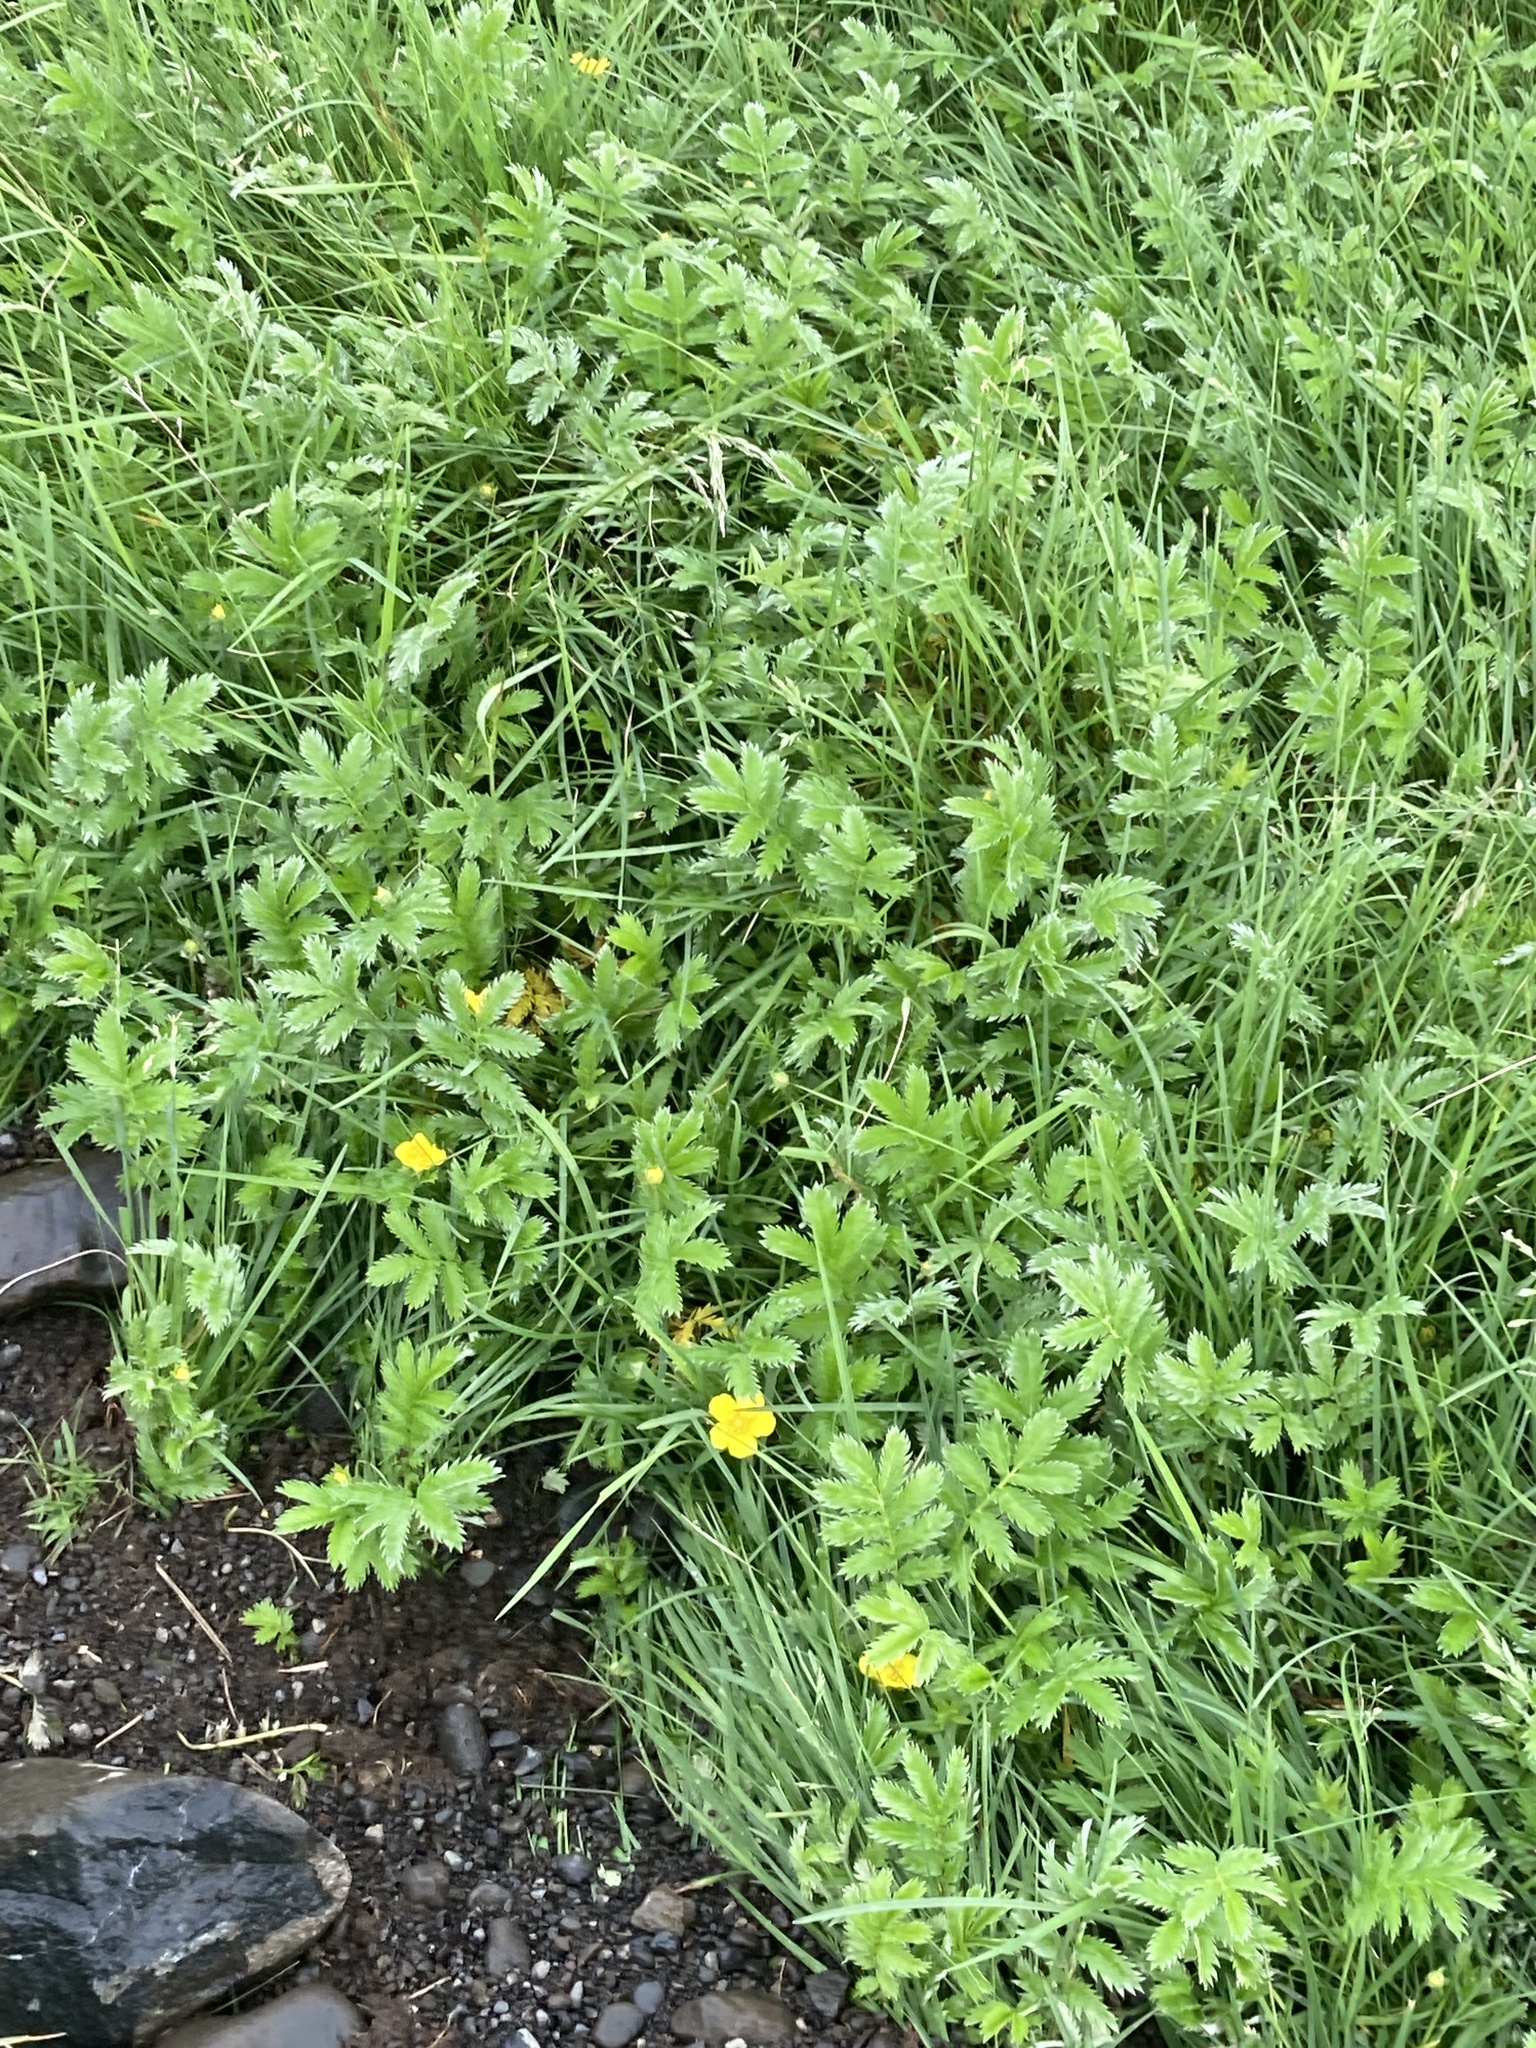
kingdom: Plantae
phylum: Tracheophyta
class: Magnoliopsida
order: Rosales
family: Rosaceae
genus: Argentina
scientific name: Argentina anserina
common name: Common silverweed
